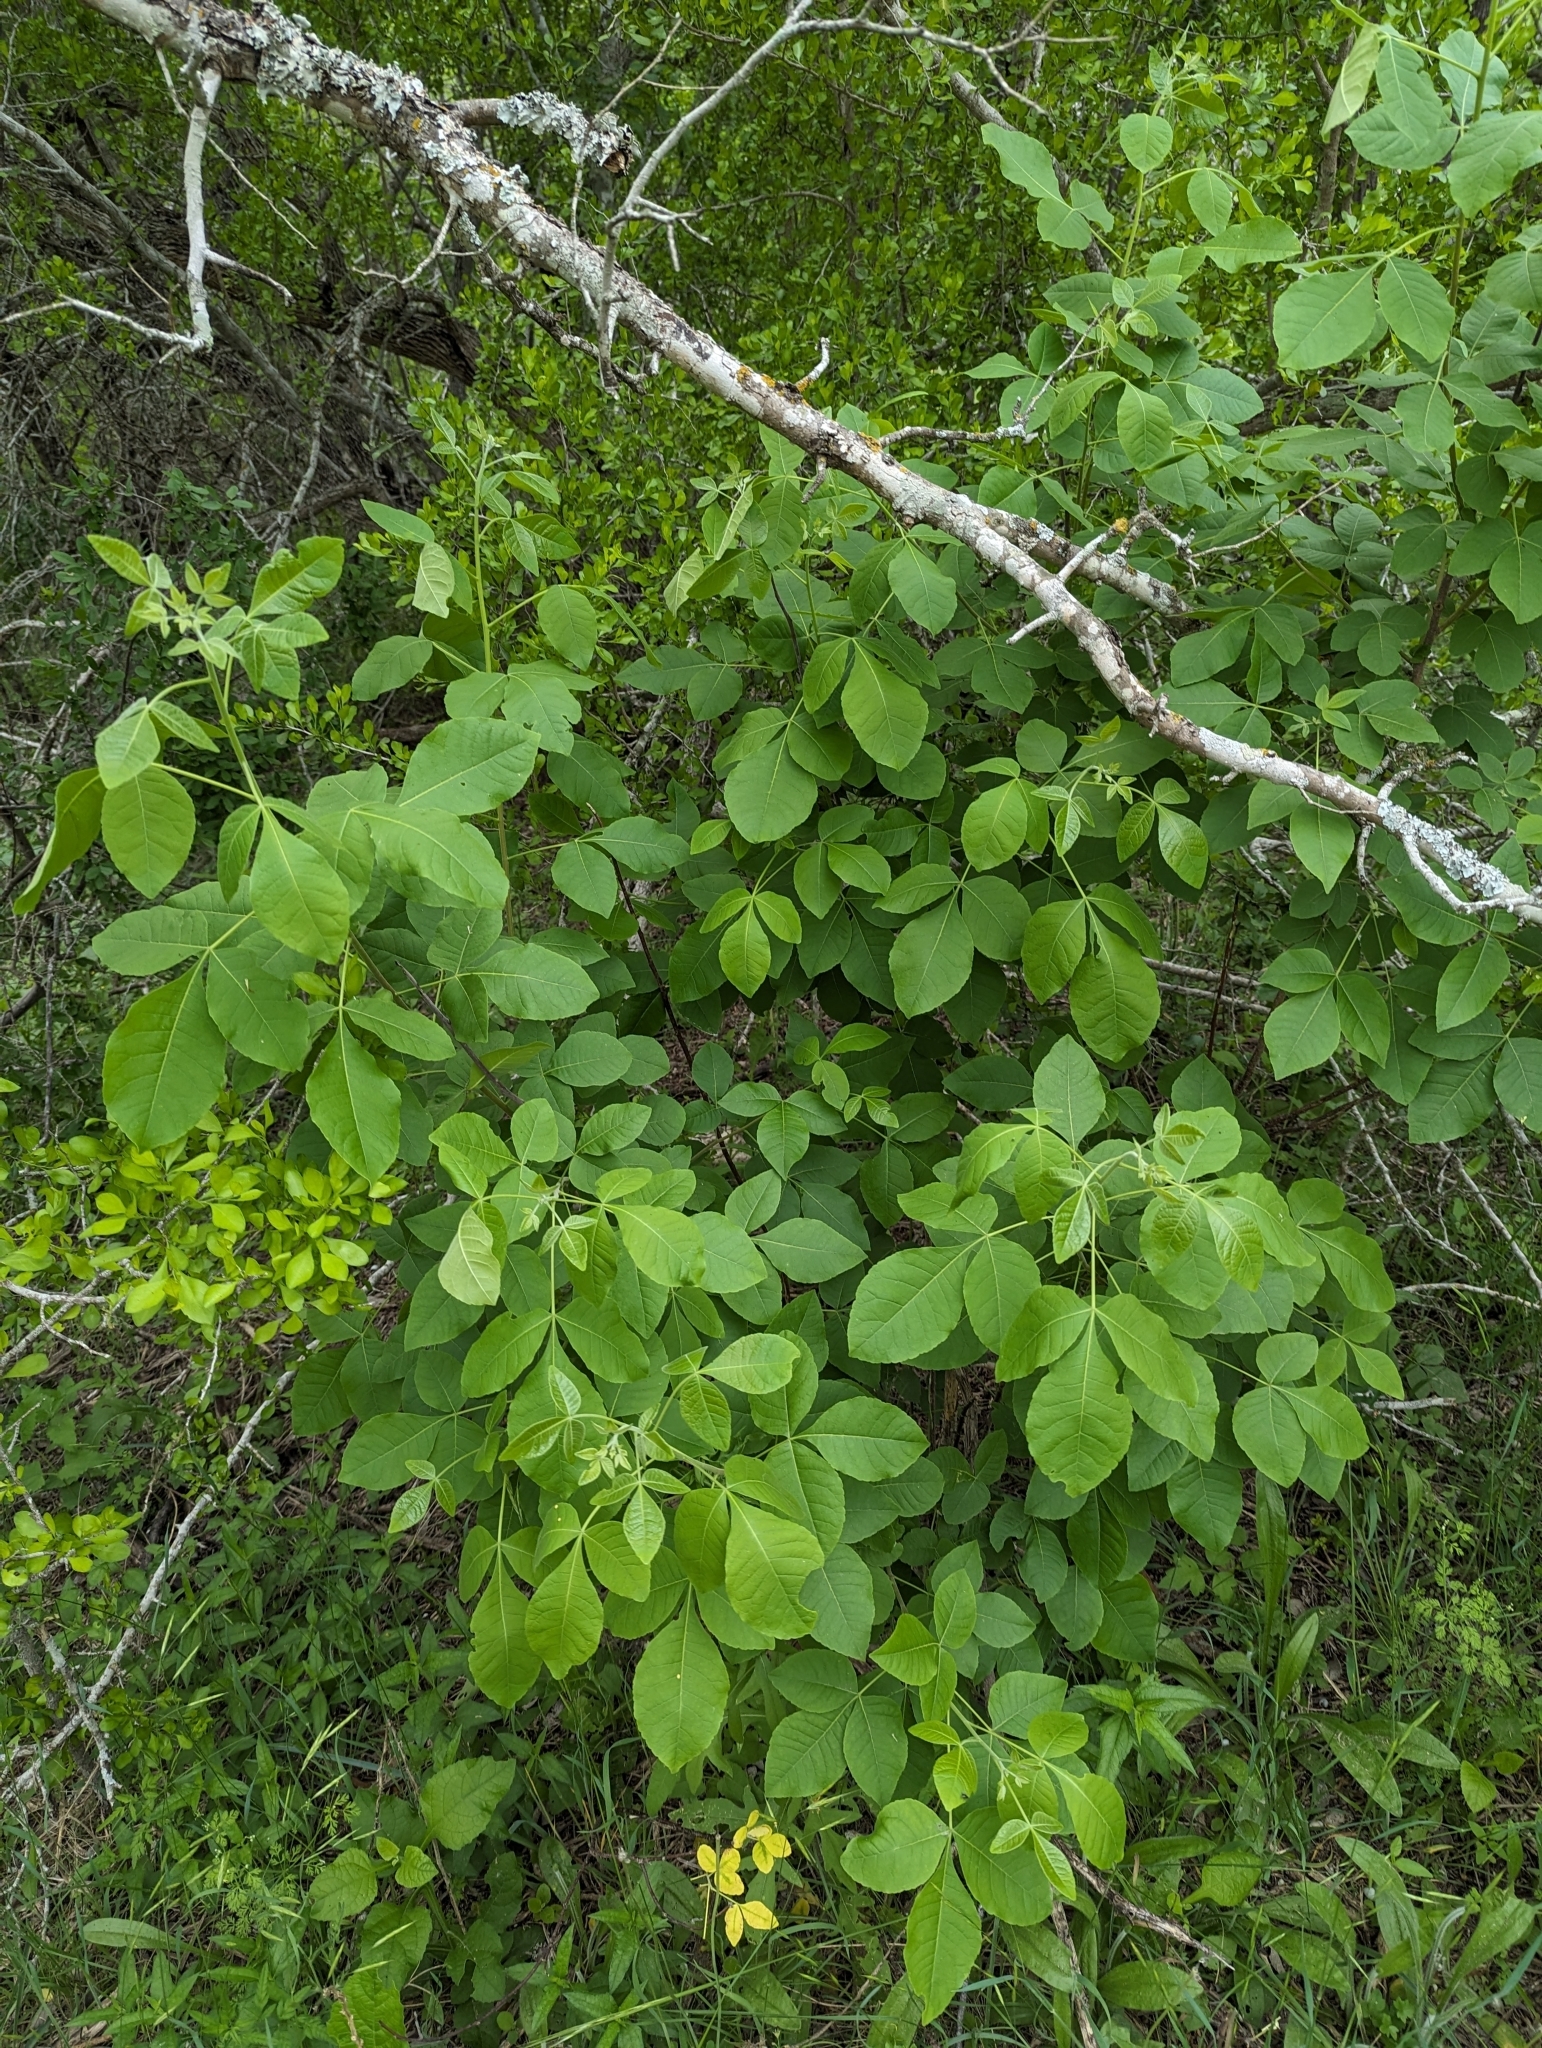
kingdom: Plantae
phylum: Tracheophyta
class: Magnoliopsida
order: Sapindales
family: Rutaceae
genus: Ptelea
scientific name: Ptelea trifoliata
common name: Common hop-tree
